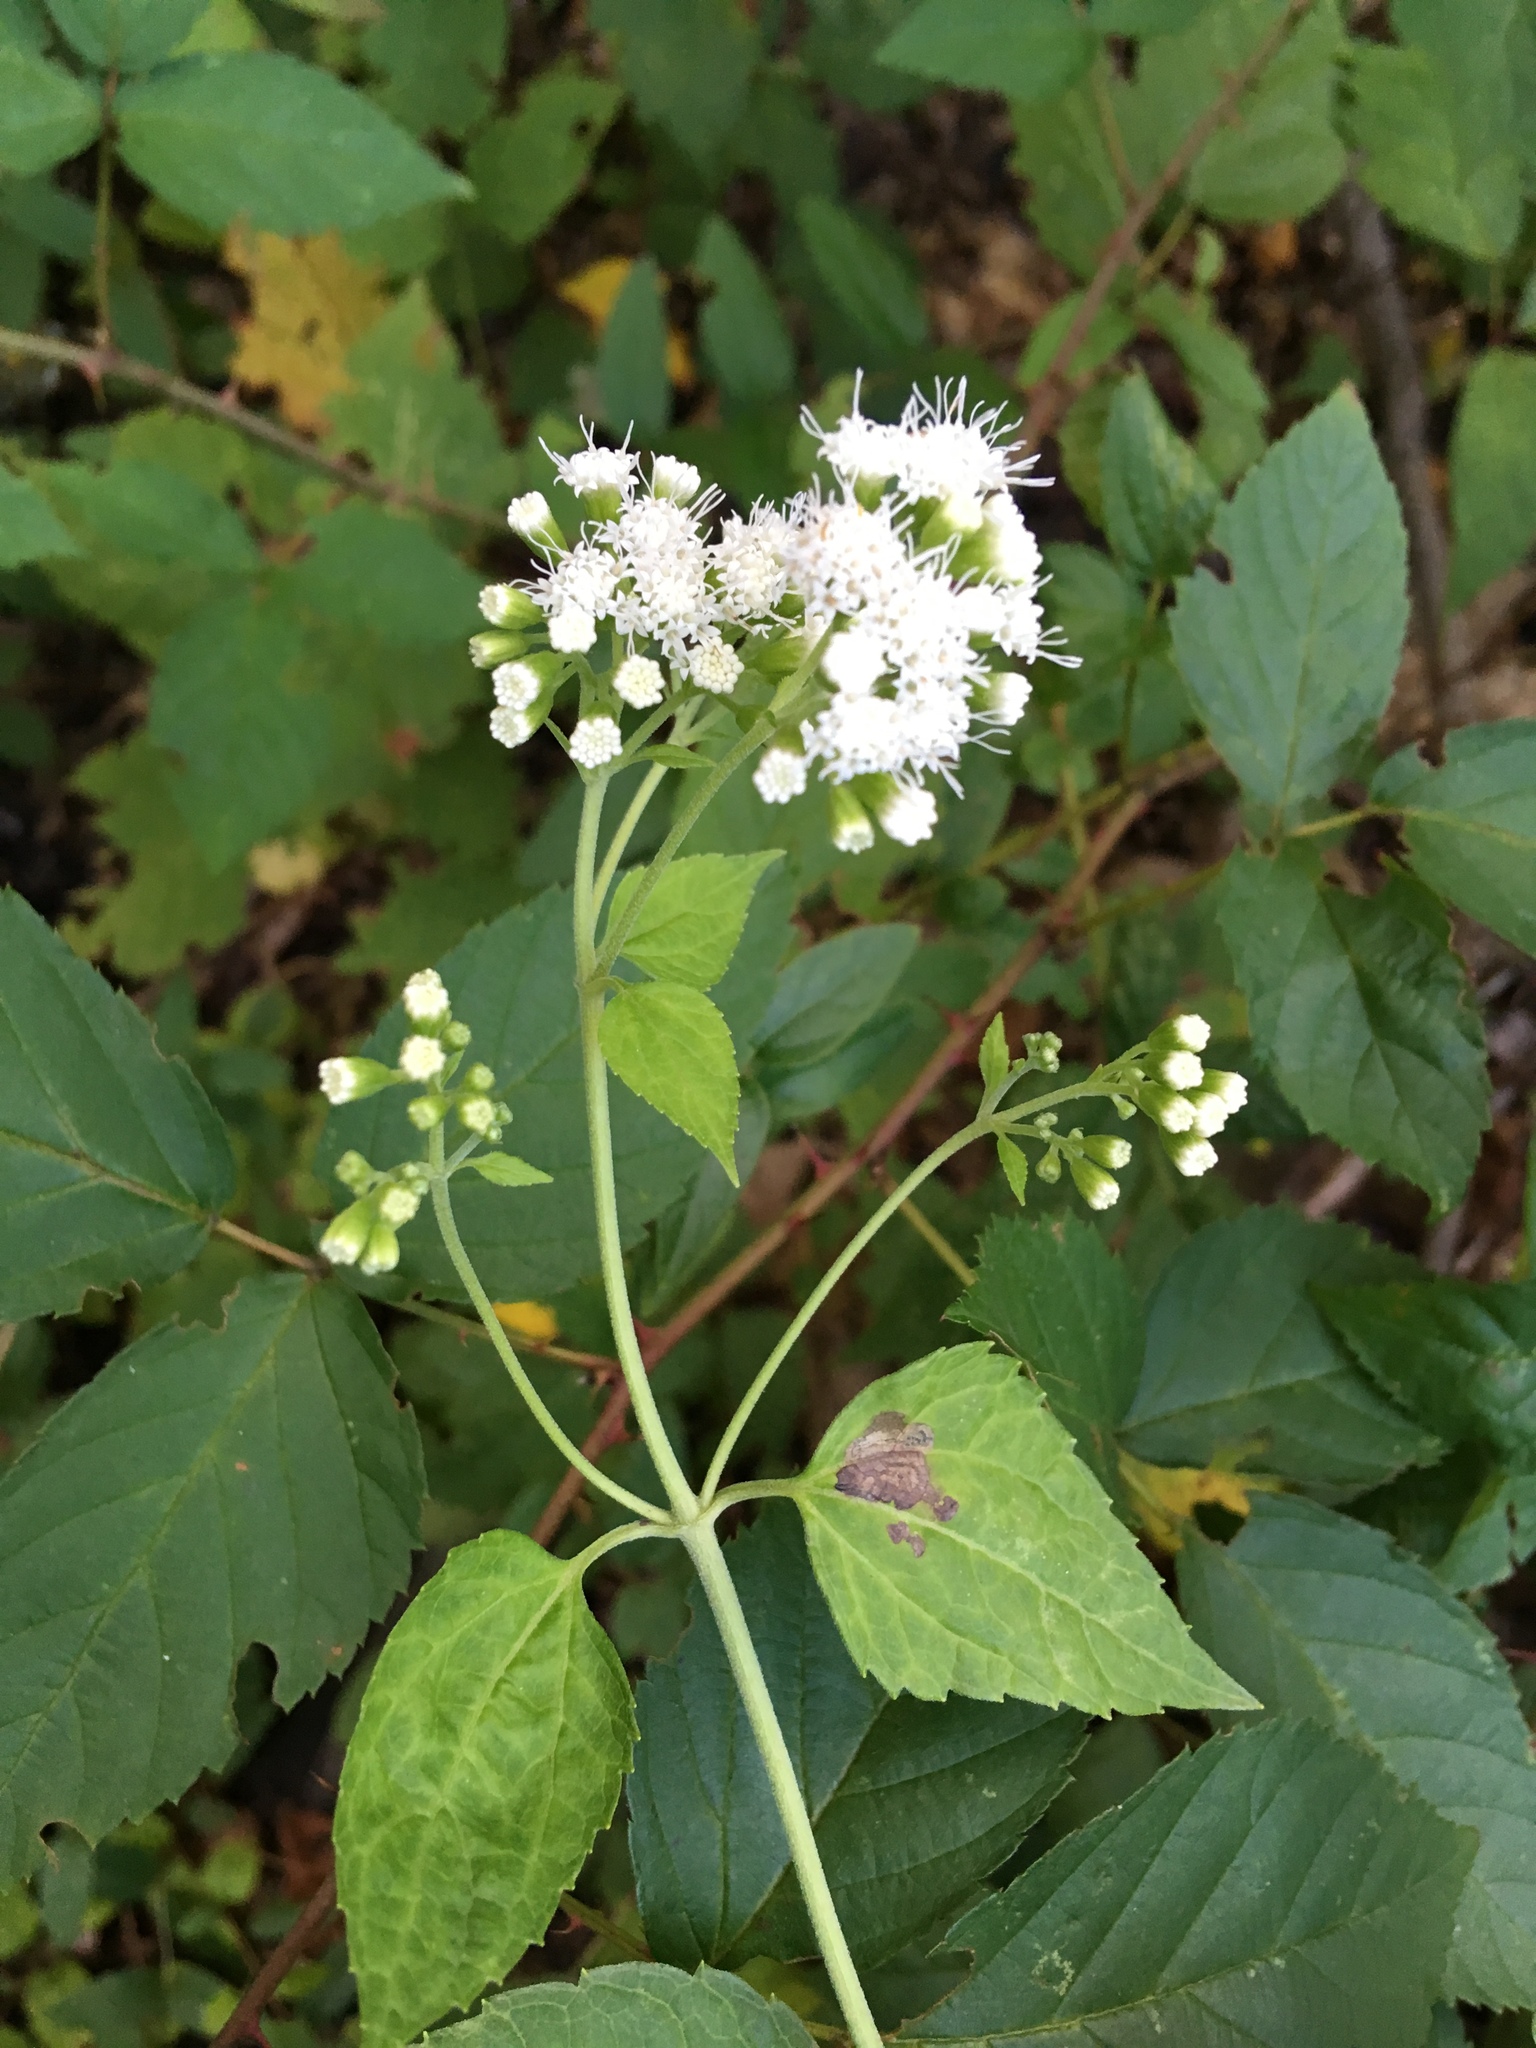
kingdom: Plantae
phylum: Tracheophyta
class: Magnoliopsida
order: Asterales
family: Asteraceae
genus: Ageratina
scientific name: Ageratina altissima
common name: White snakeroot
